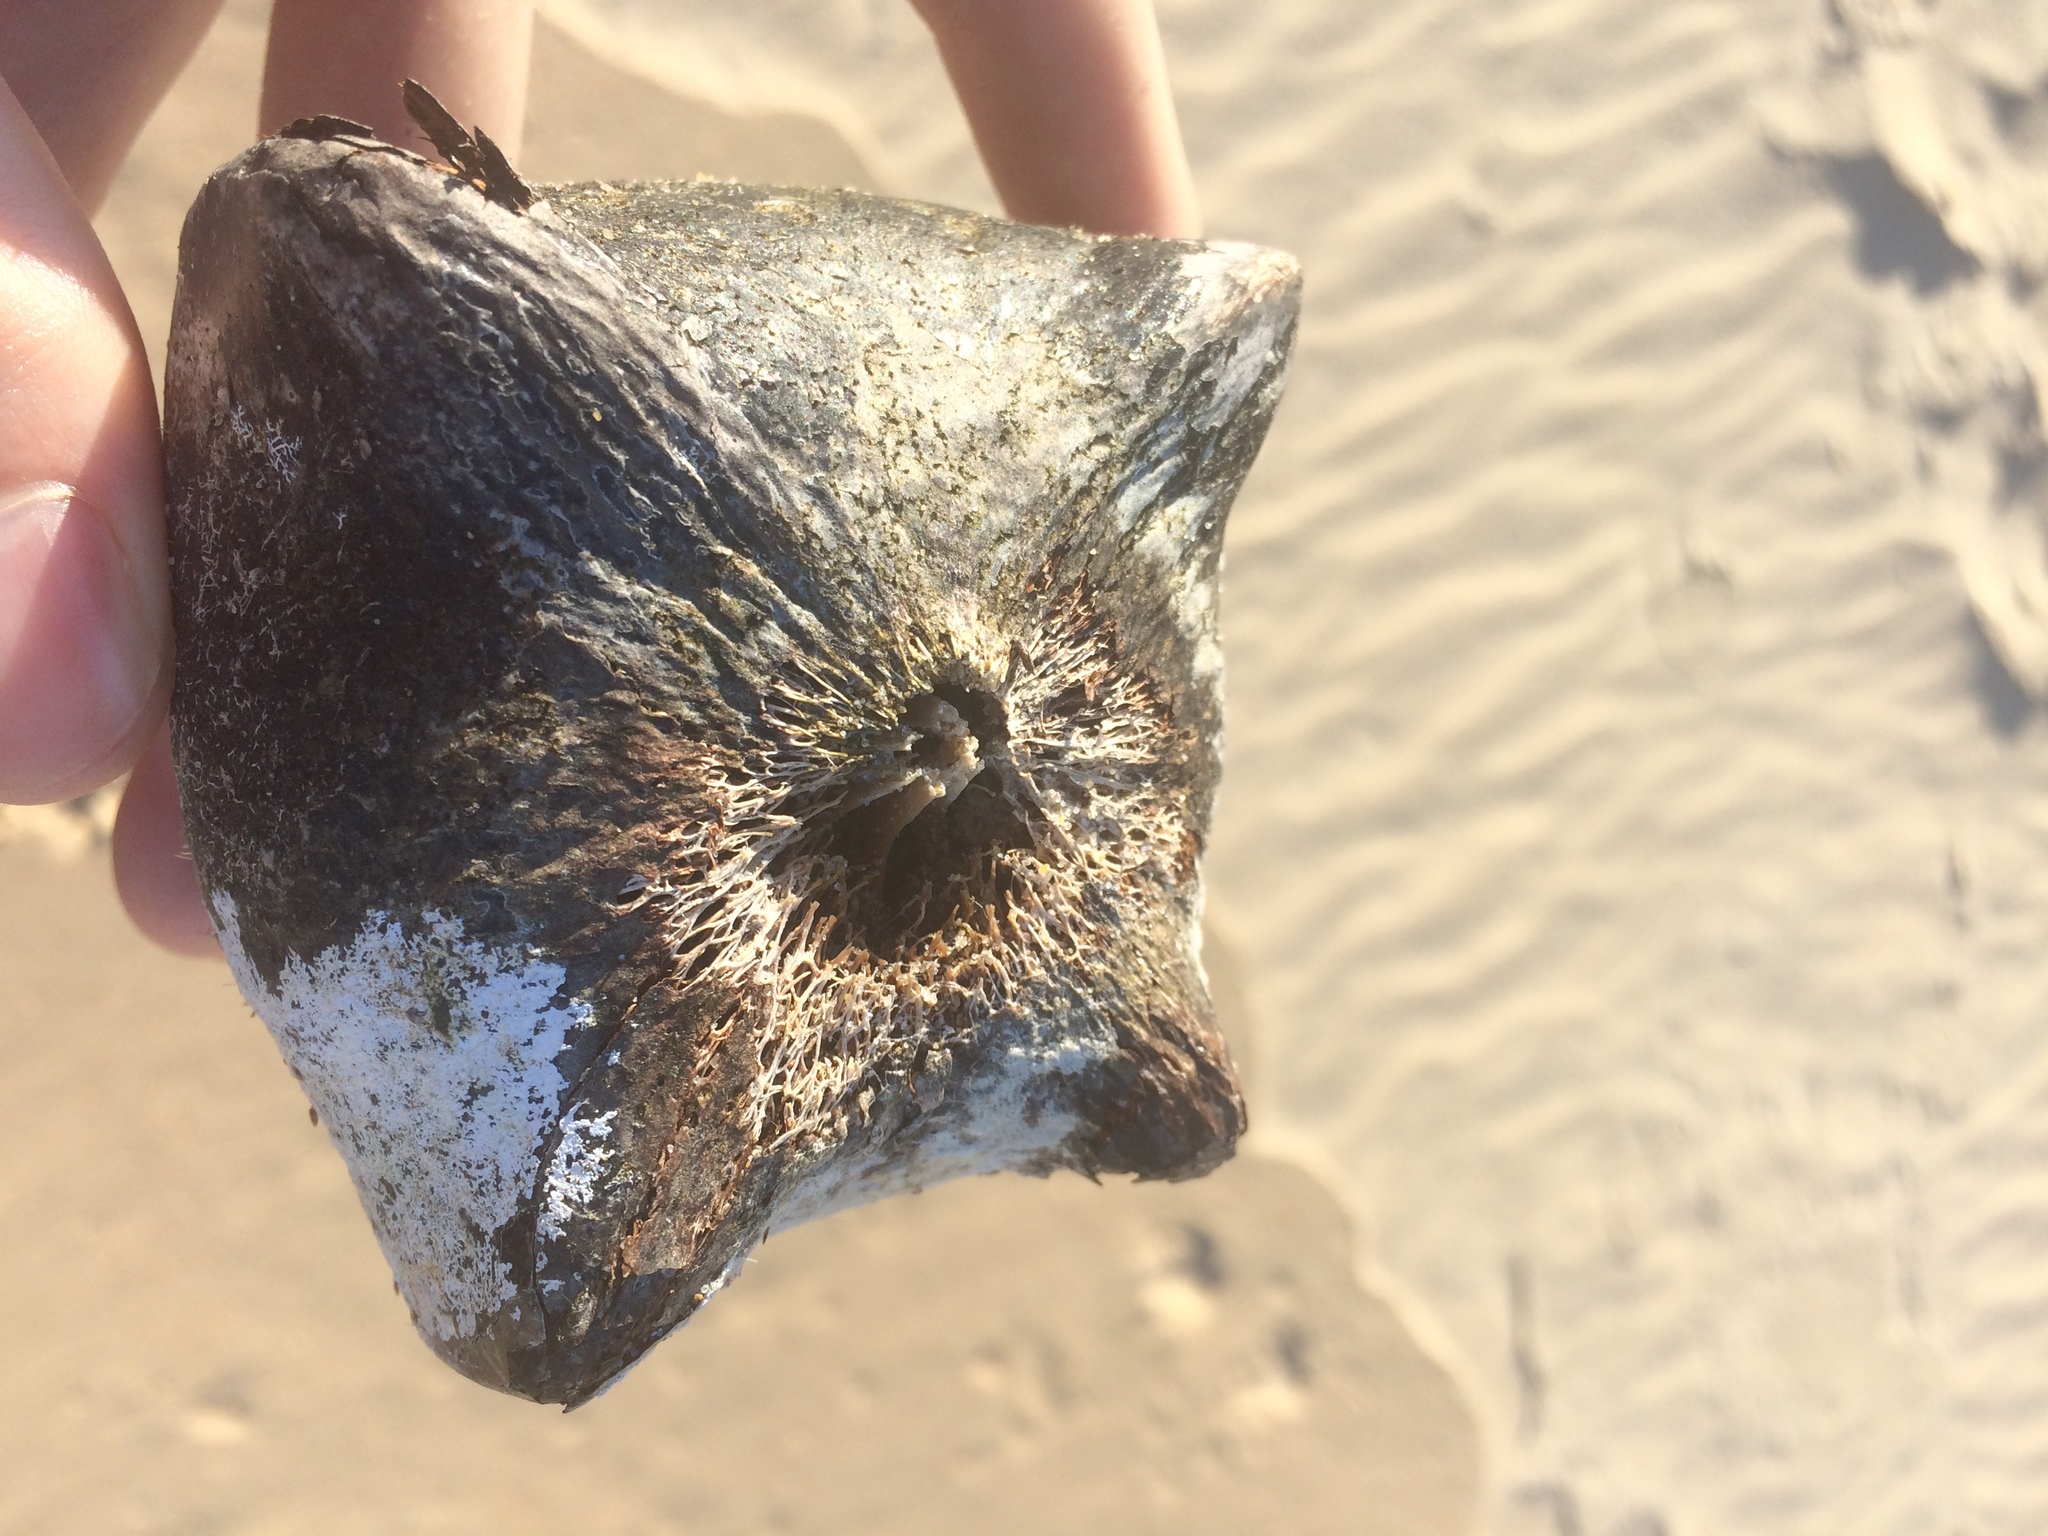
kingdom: Plantae
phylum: Tracheophyta
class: Magnoliopsida
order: Ericales
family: Lecythidaceae
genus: Barringtonia
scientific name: Barringtonia asiatica
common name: Mango-pine
